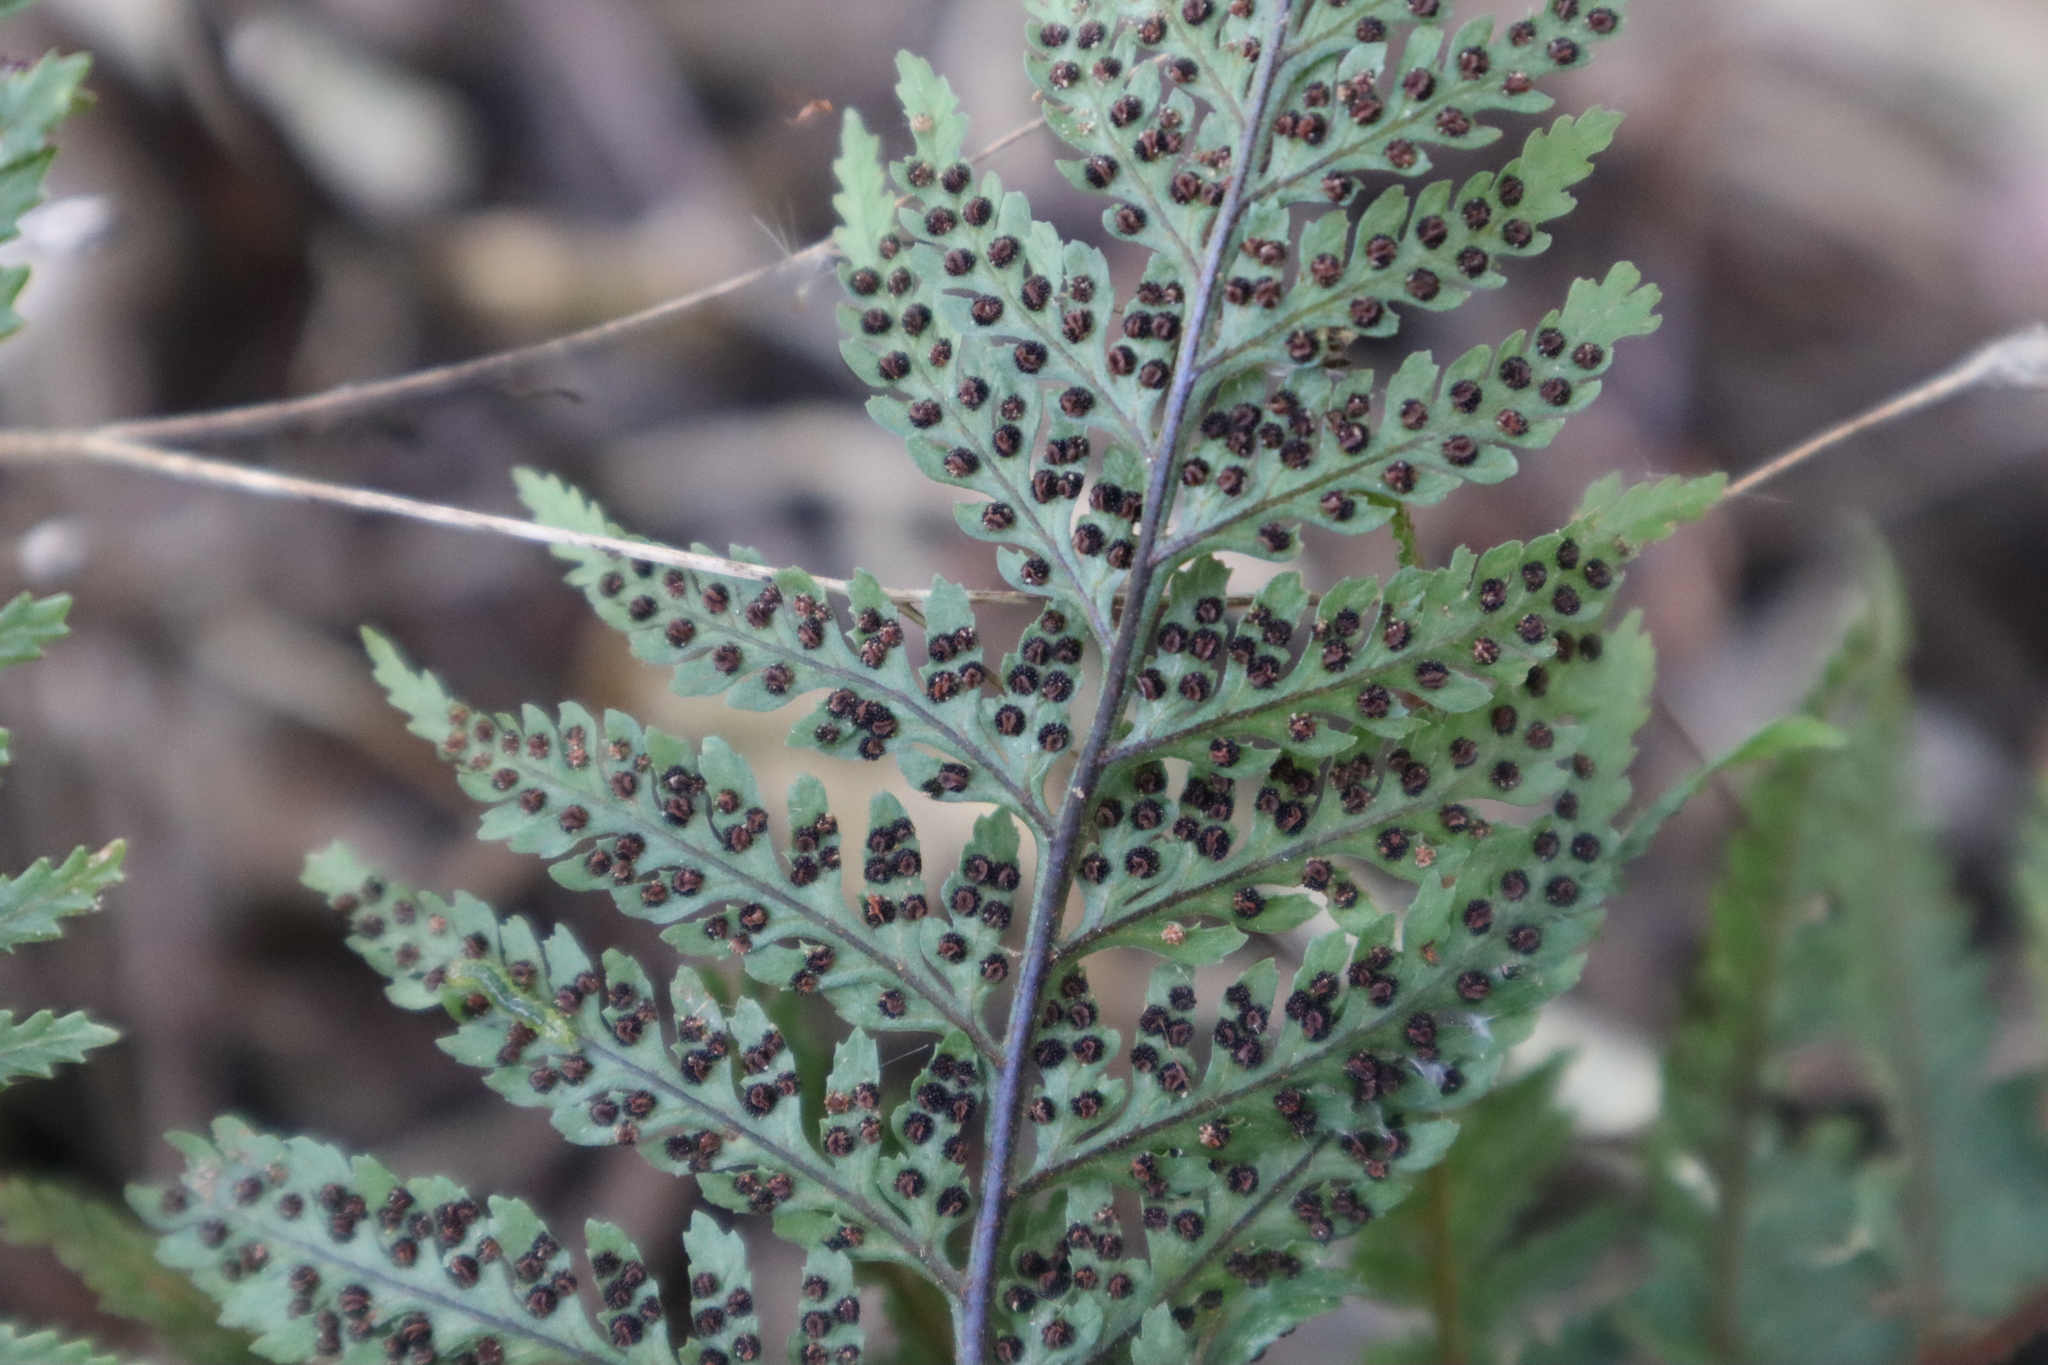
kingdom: Plantae
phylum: Tracheophyta
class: Polypodiopsida
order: Polypodiales
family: Dryopteridaceae
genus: Parapolystichum
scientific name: Parapolystichum glabellum
